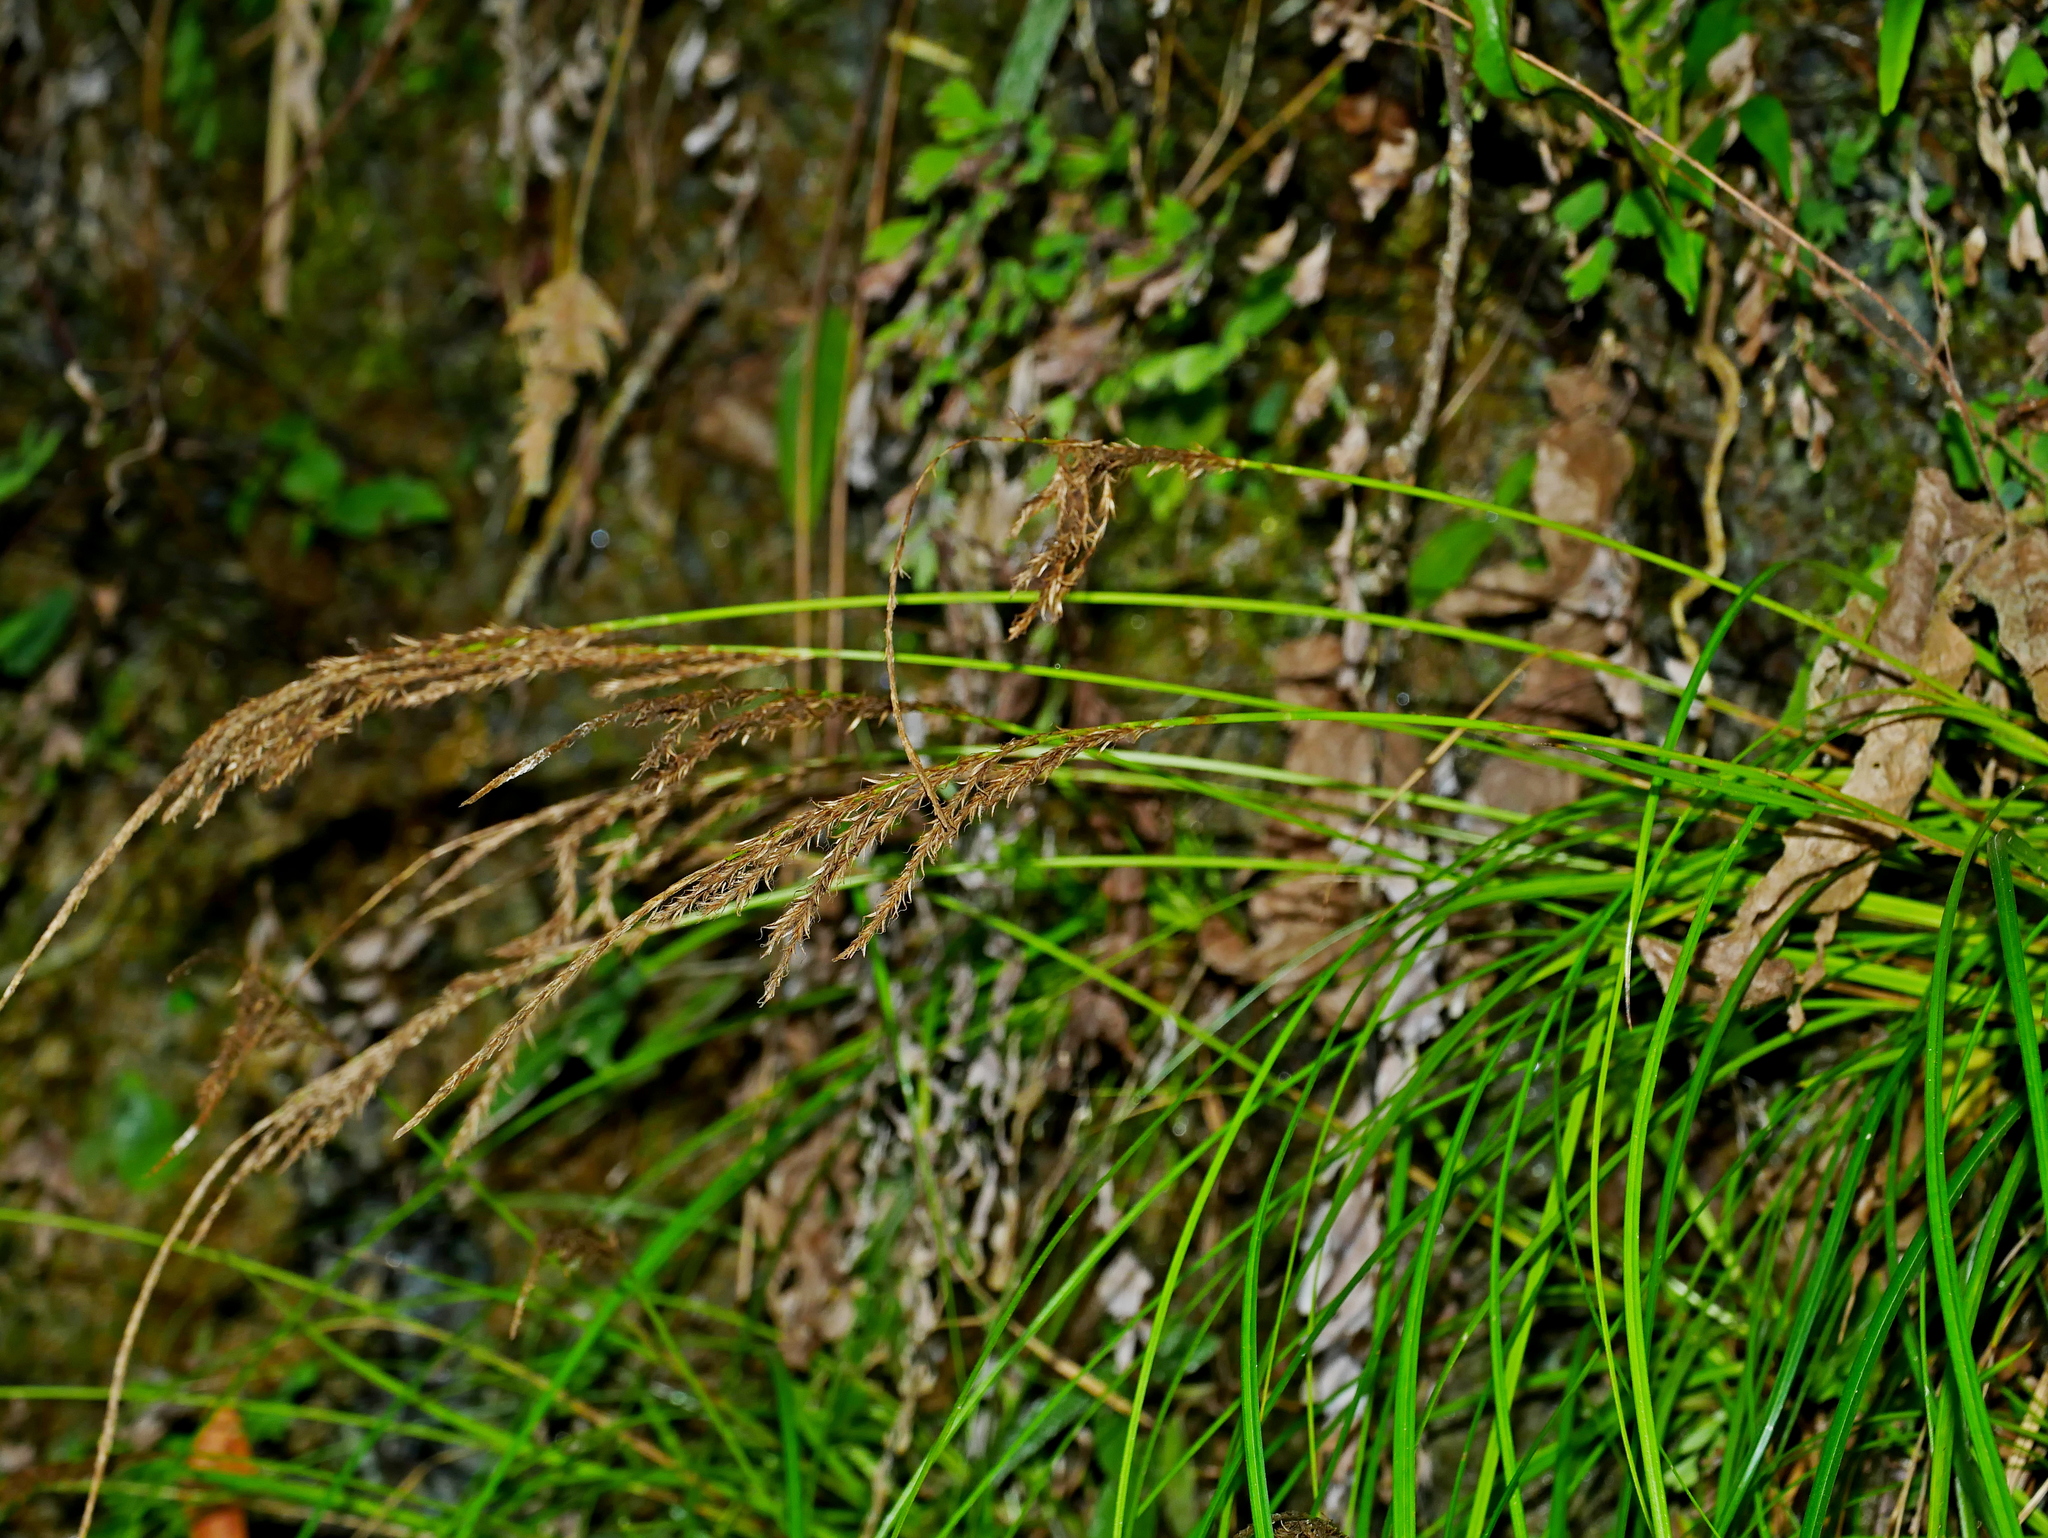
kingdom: Plantae
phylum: Tracheophyta
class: Liliopsida
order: Poales
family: Cyperaceae
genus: Carex
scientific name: Carex fulvorubescens
